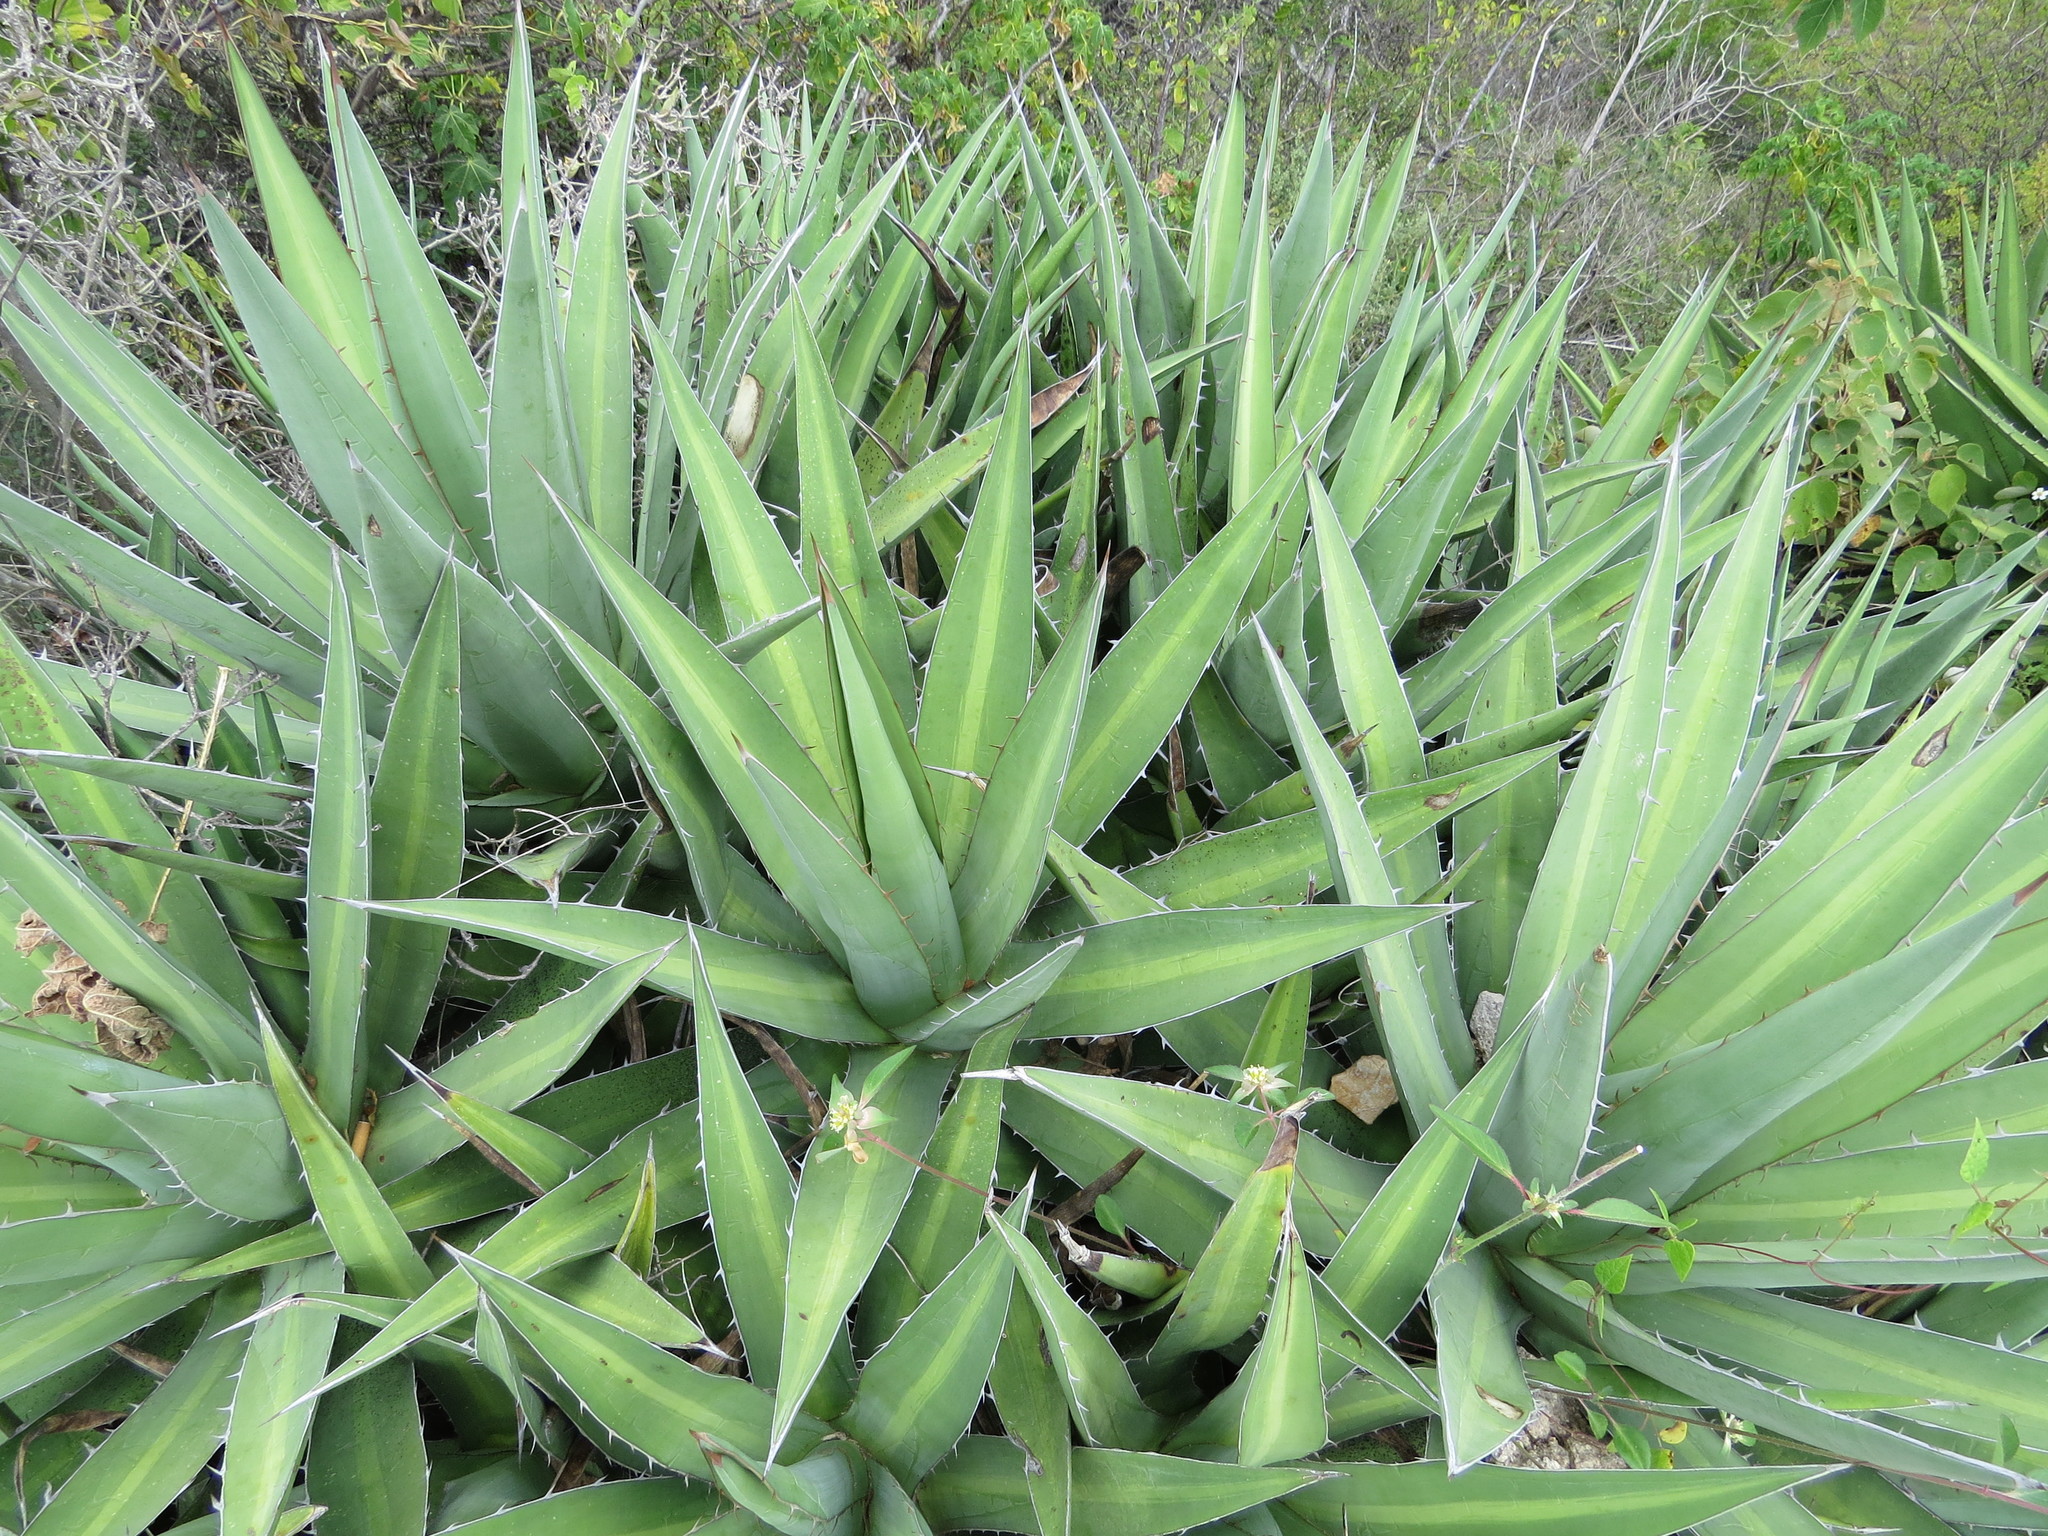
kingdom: Plantae
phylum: Tracheophyta
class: Liliopsida
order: Asparagales
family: Asparagaceae
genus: Agave
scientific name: Agave kerchovei
